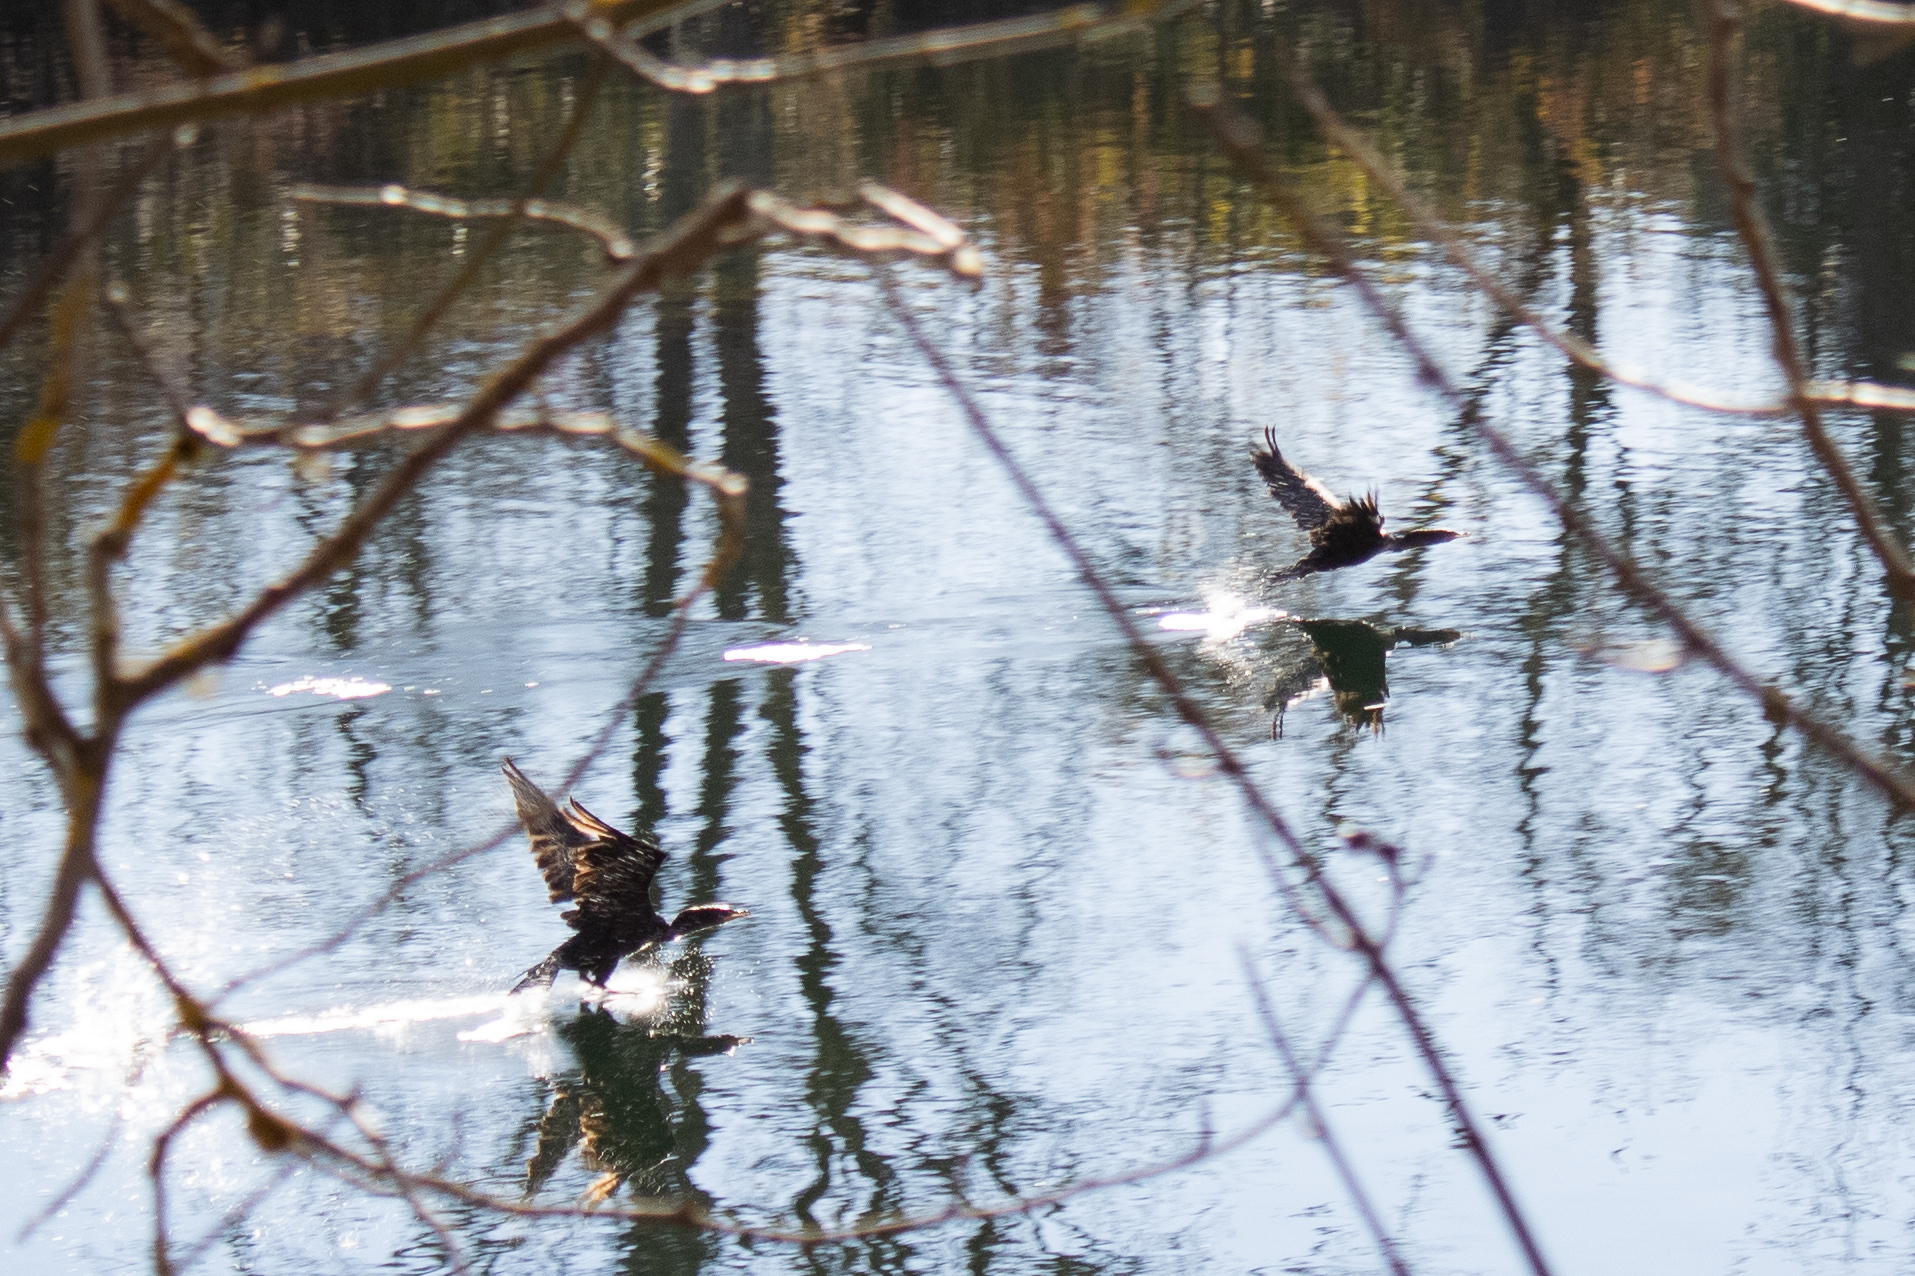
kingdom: Animalia
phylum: Chordata
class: Aves
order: Suliformes
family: Phalacrocoracidae
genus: Phalacrocorax
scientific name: Phalacrocorax auritus
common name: Double-crested cormorant
